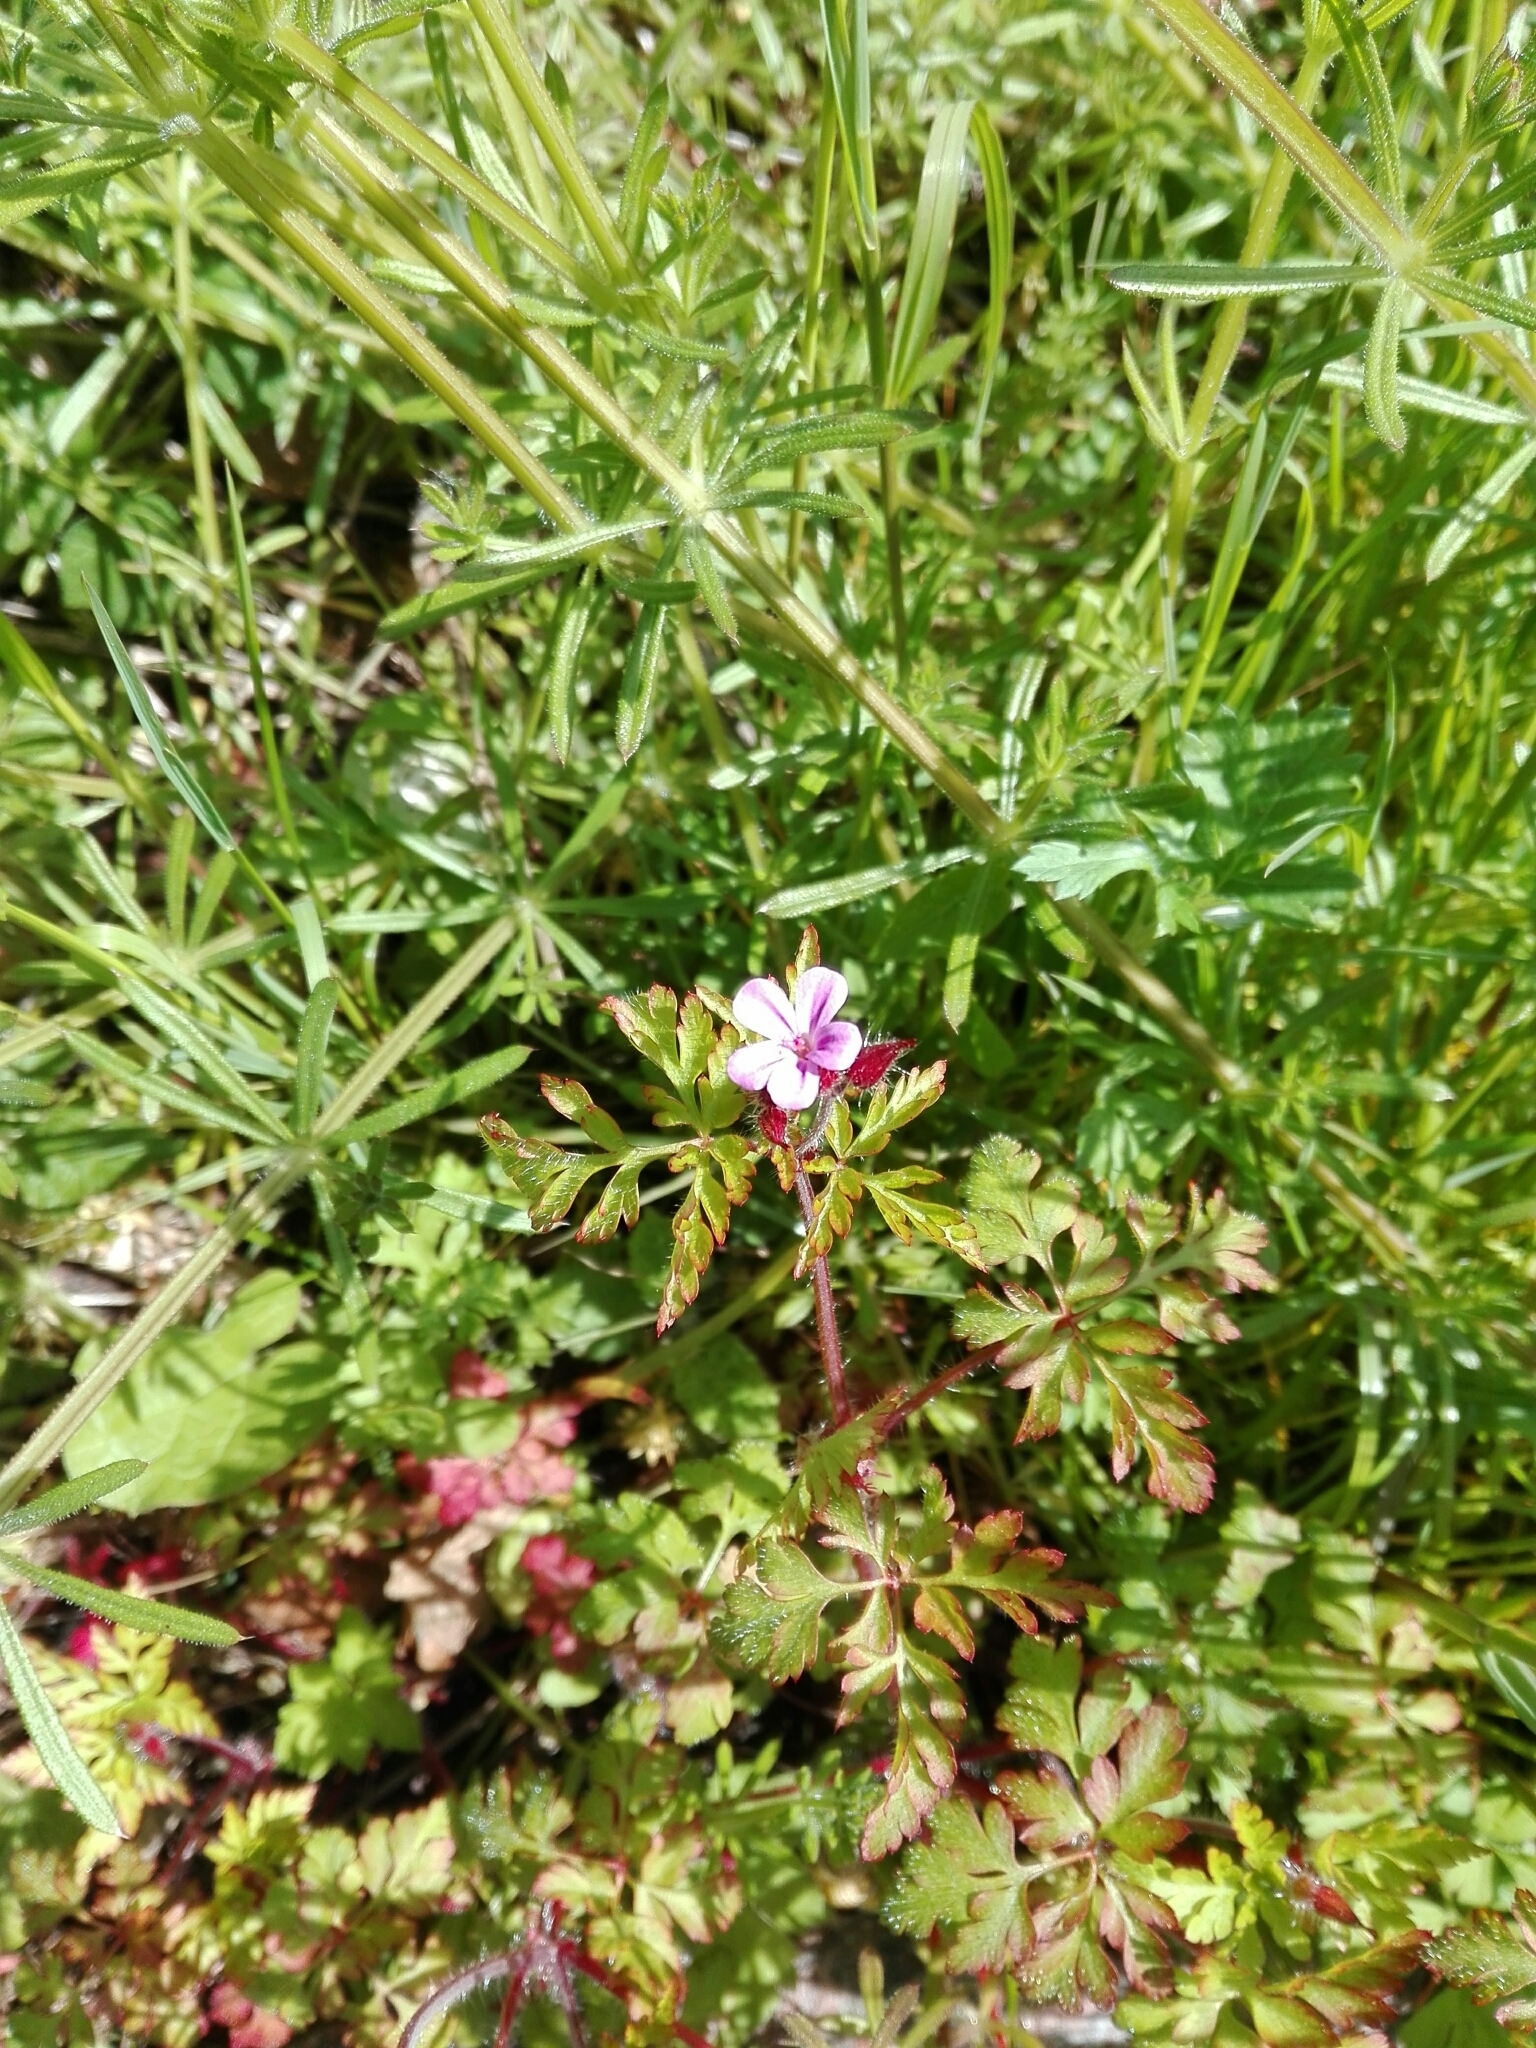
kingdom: Plantae
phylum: Tracheophyta
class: Magnoliopsida
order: Geraniales
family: Geraniaceae
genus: Geranium
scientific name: Geranium robertianum
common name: Herb-robert
